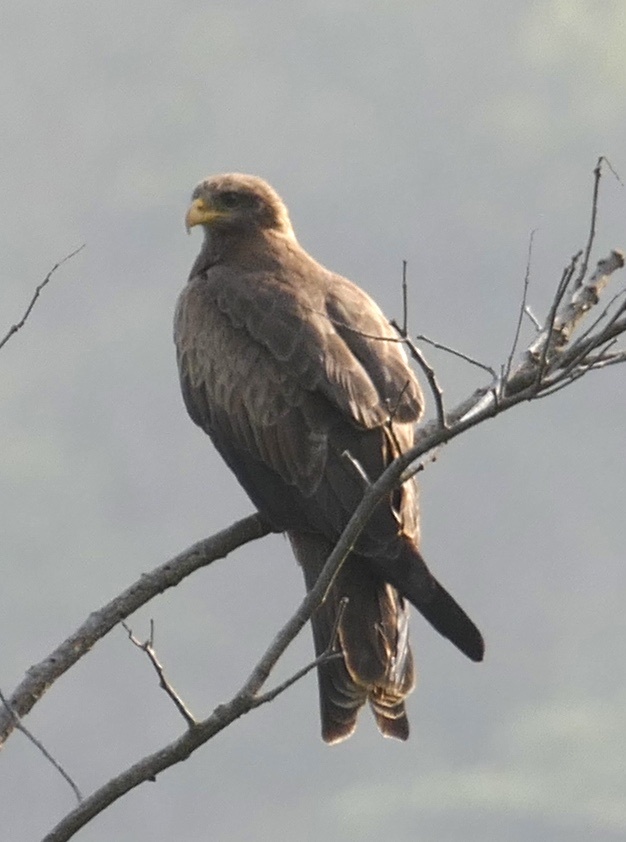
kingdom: Animalia
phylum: Chordata
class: Aves
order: Accipitriformes
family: Accipitridae
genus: Milvus
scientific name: Milvus migrans
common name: Black kite
